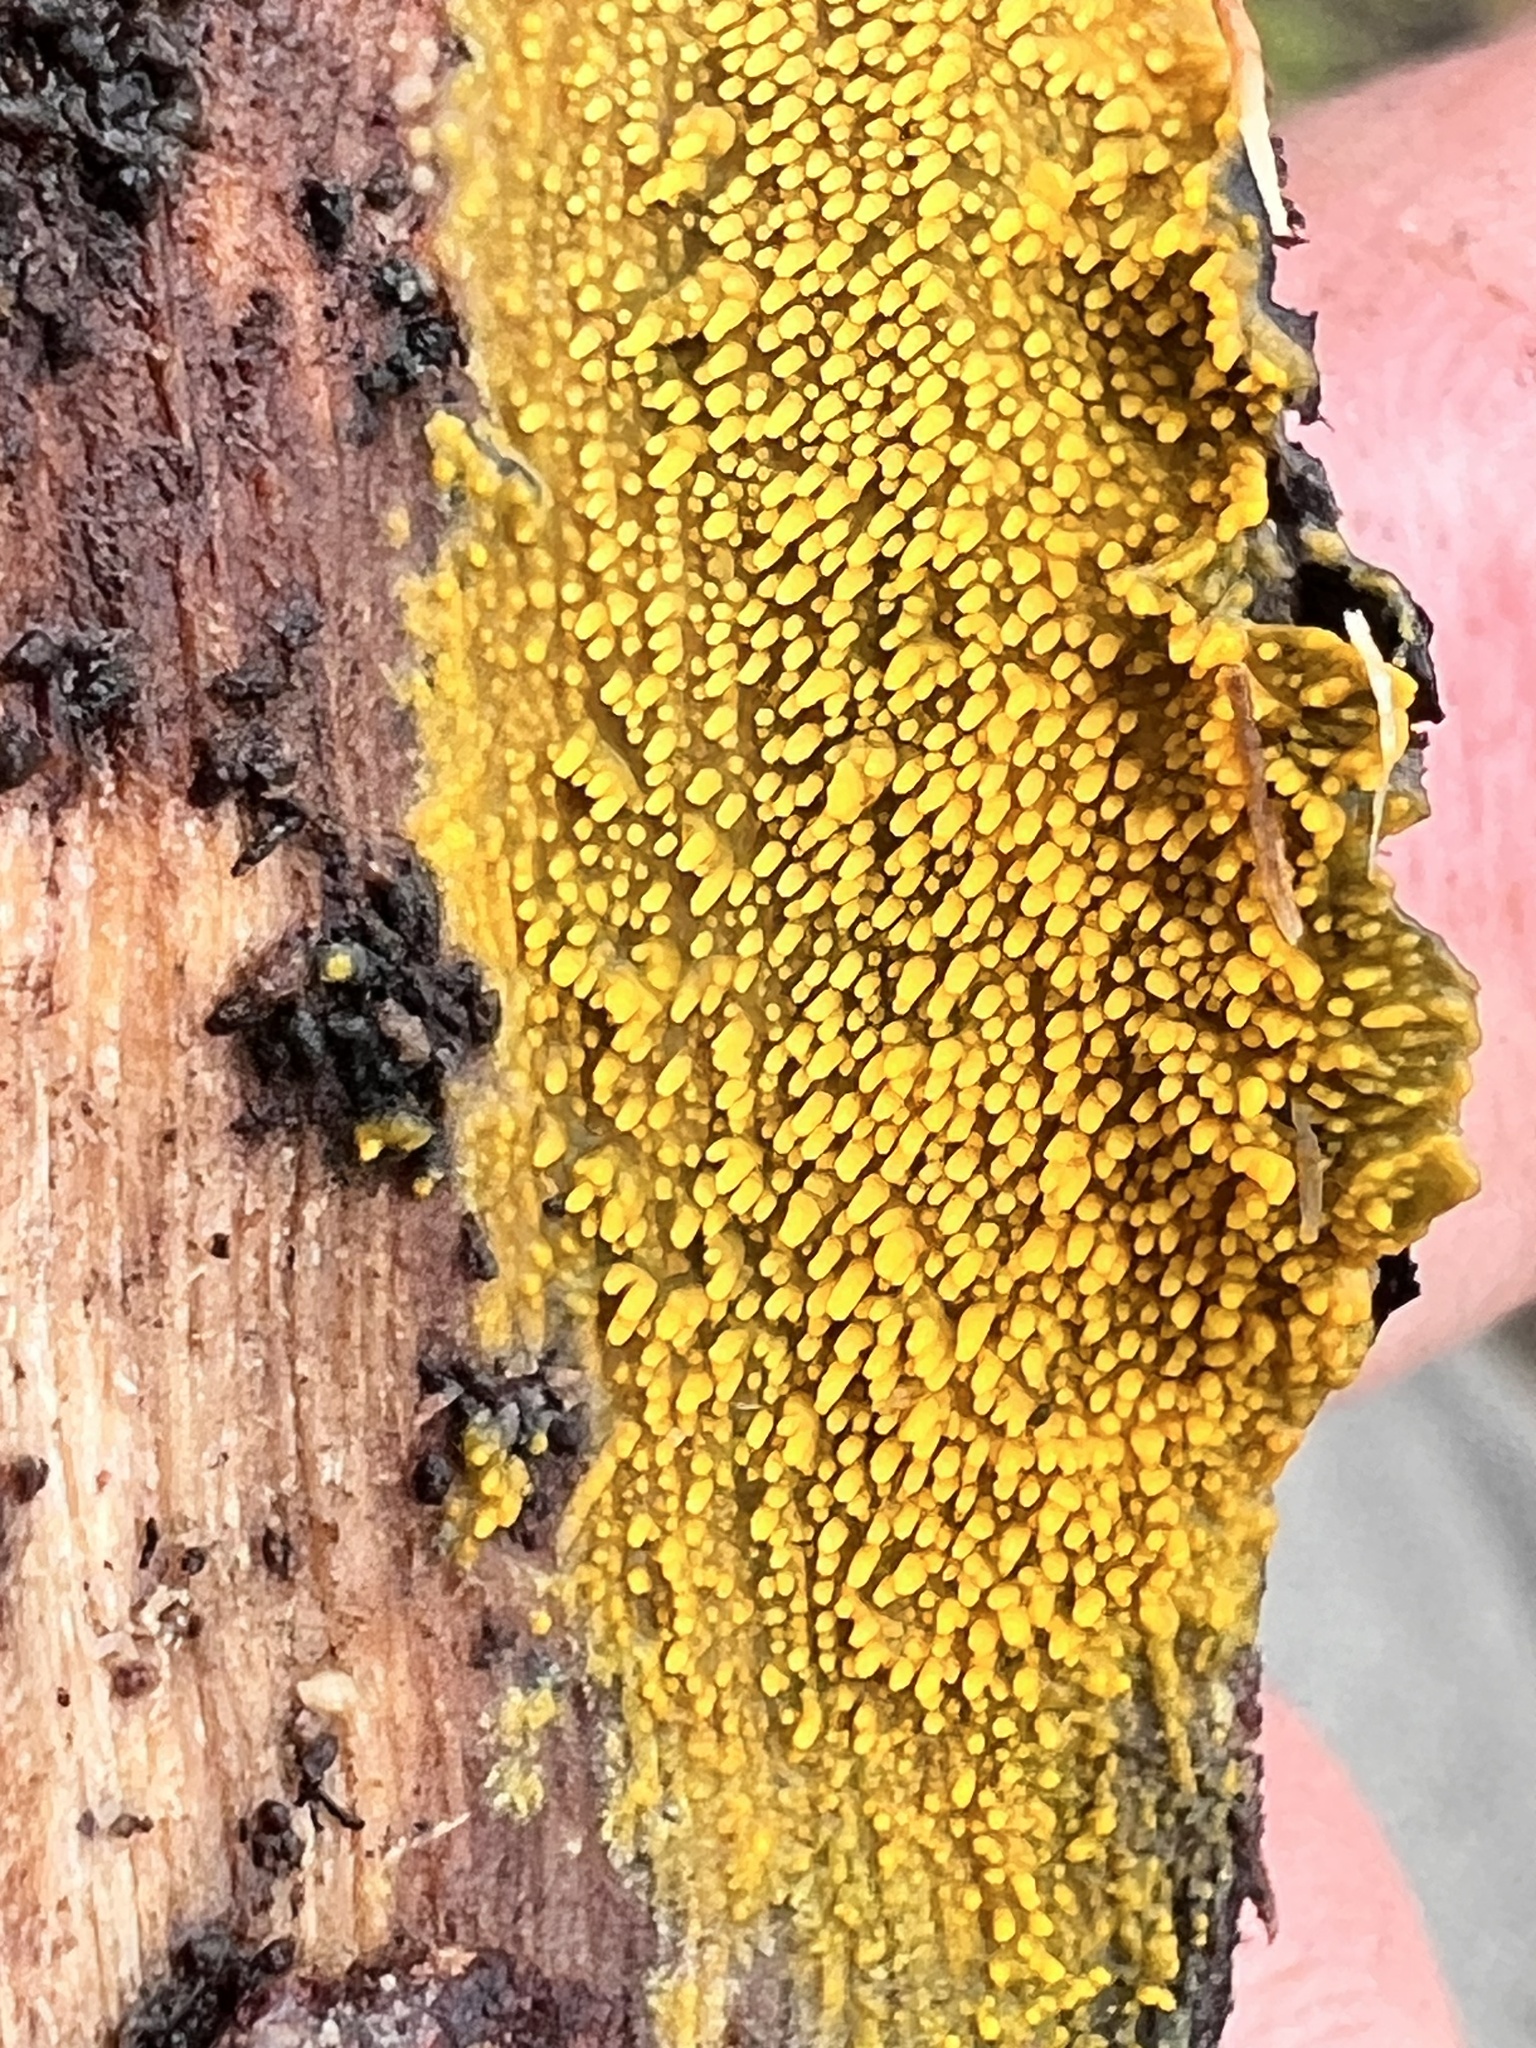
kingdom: Fungi
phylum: Basidiomycota
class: Agaricomycetes
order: Polyporales
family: Meruliaceae
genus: Phlebia
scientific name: Phlebia subceracea
